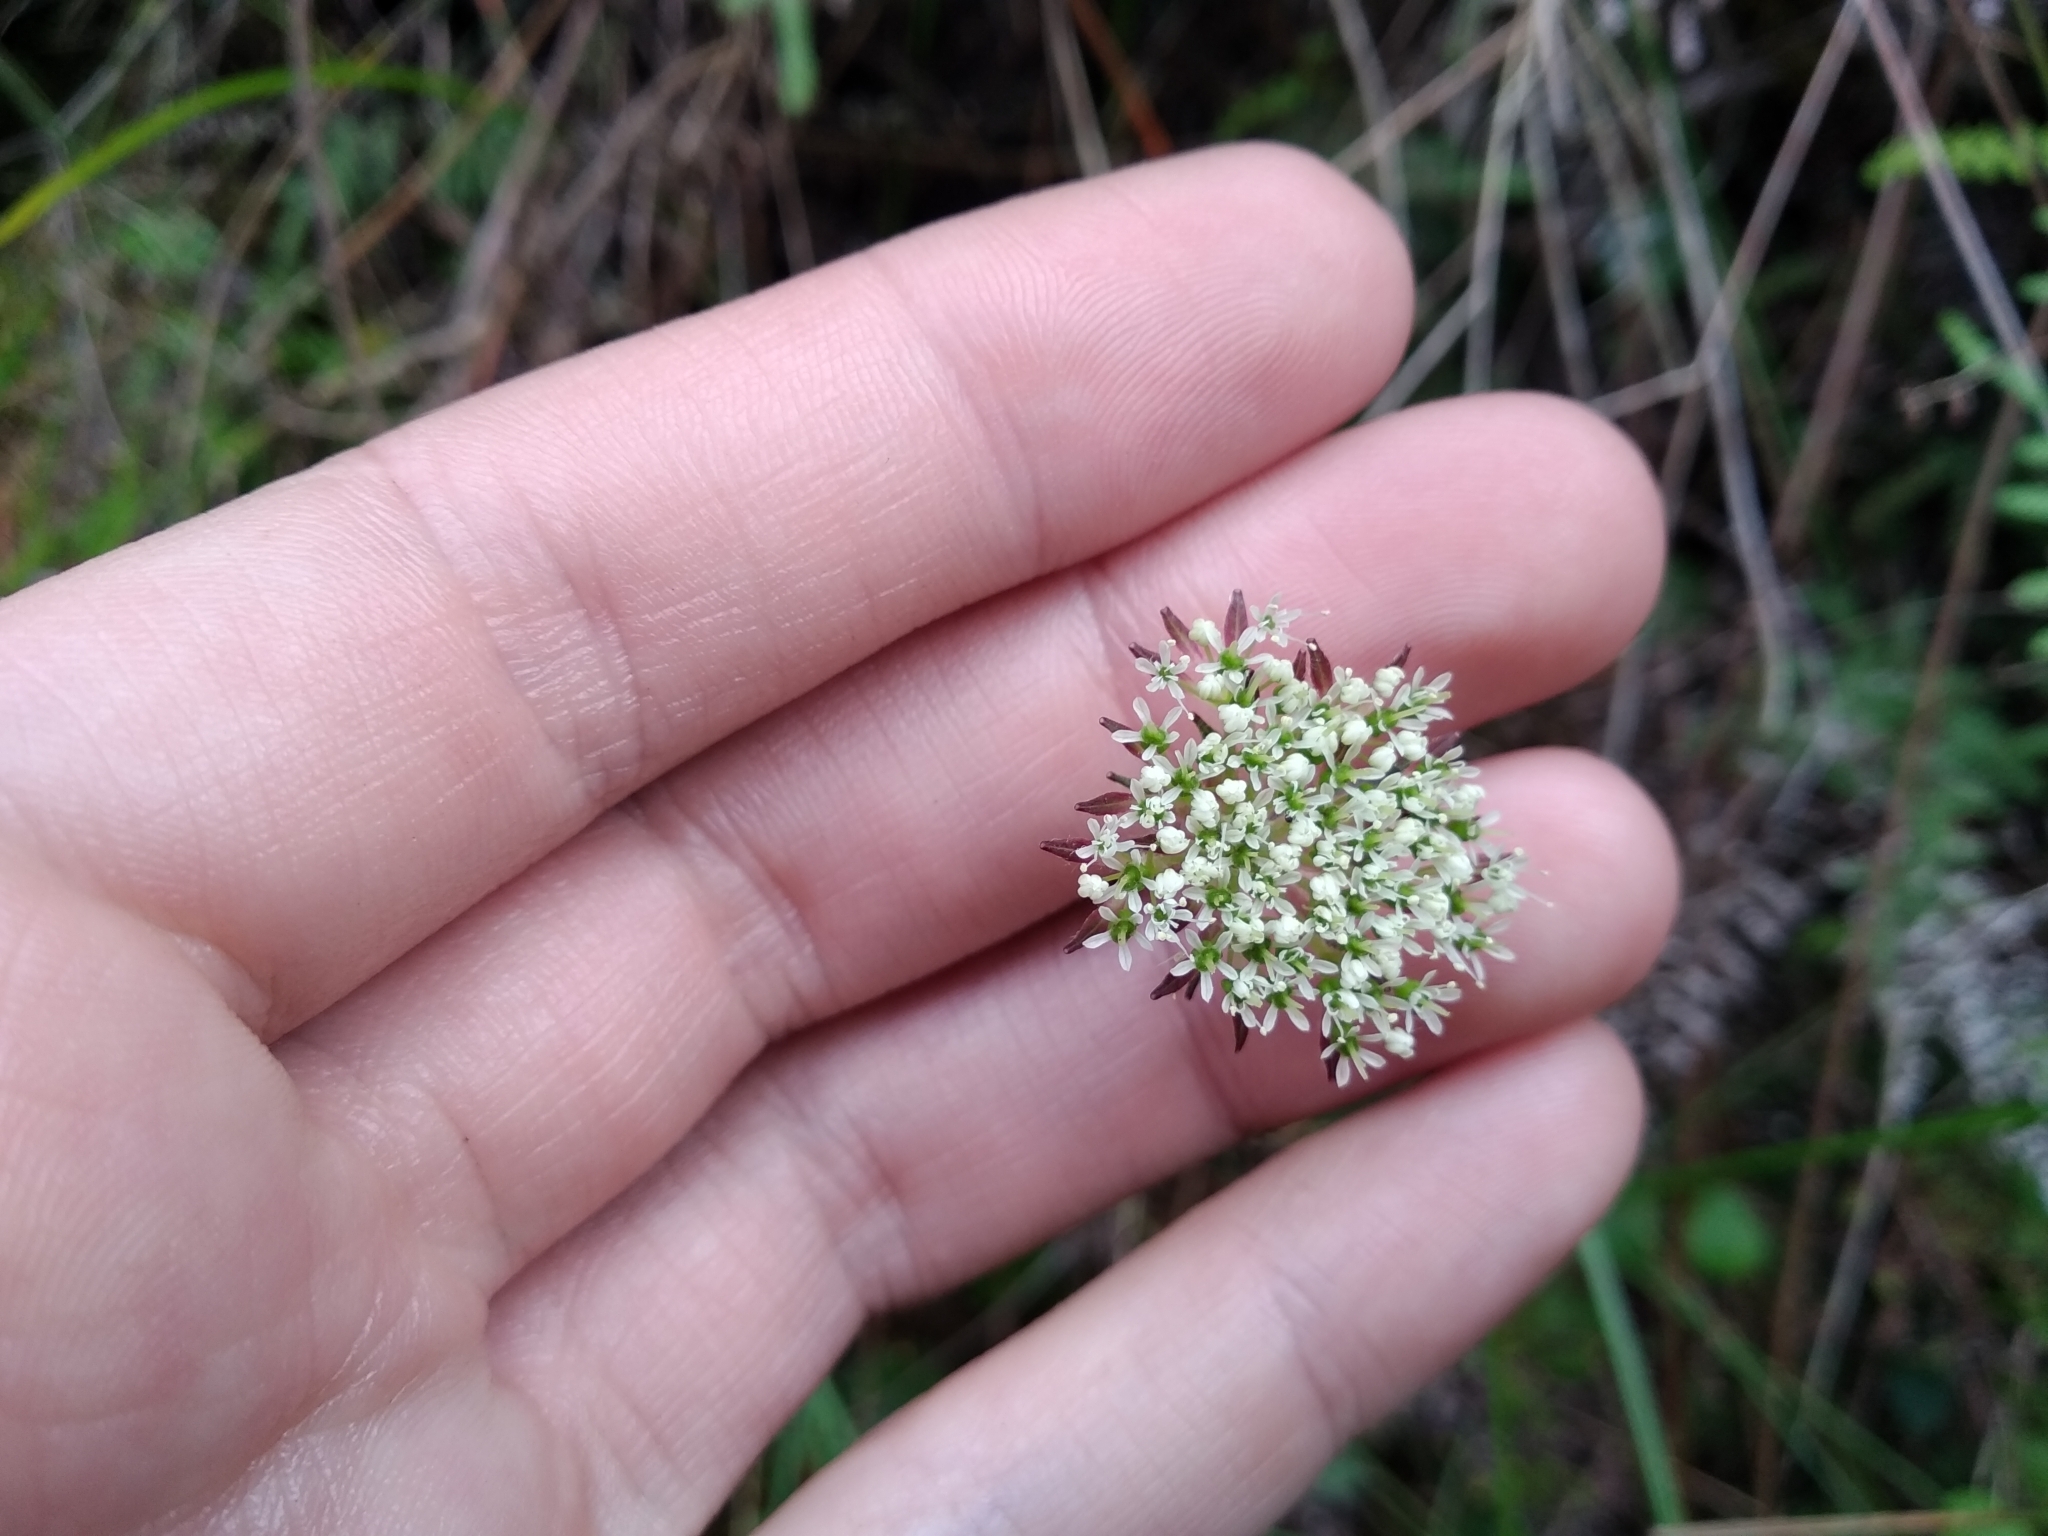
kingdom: Plantae
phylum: Tracheophyta
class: Magnoliopsida
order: Apiales
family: Apiaceae
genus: Hermas
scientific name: Hermas capitata
